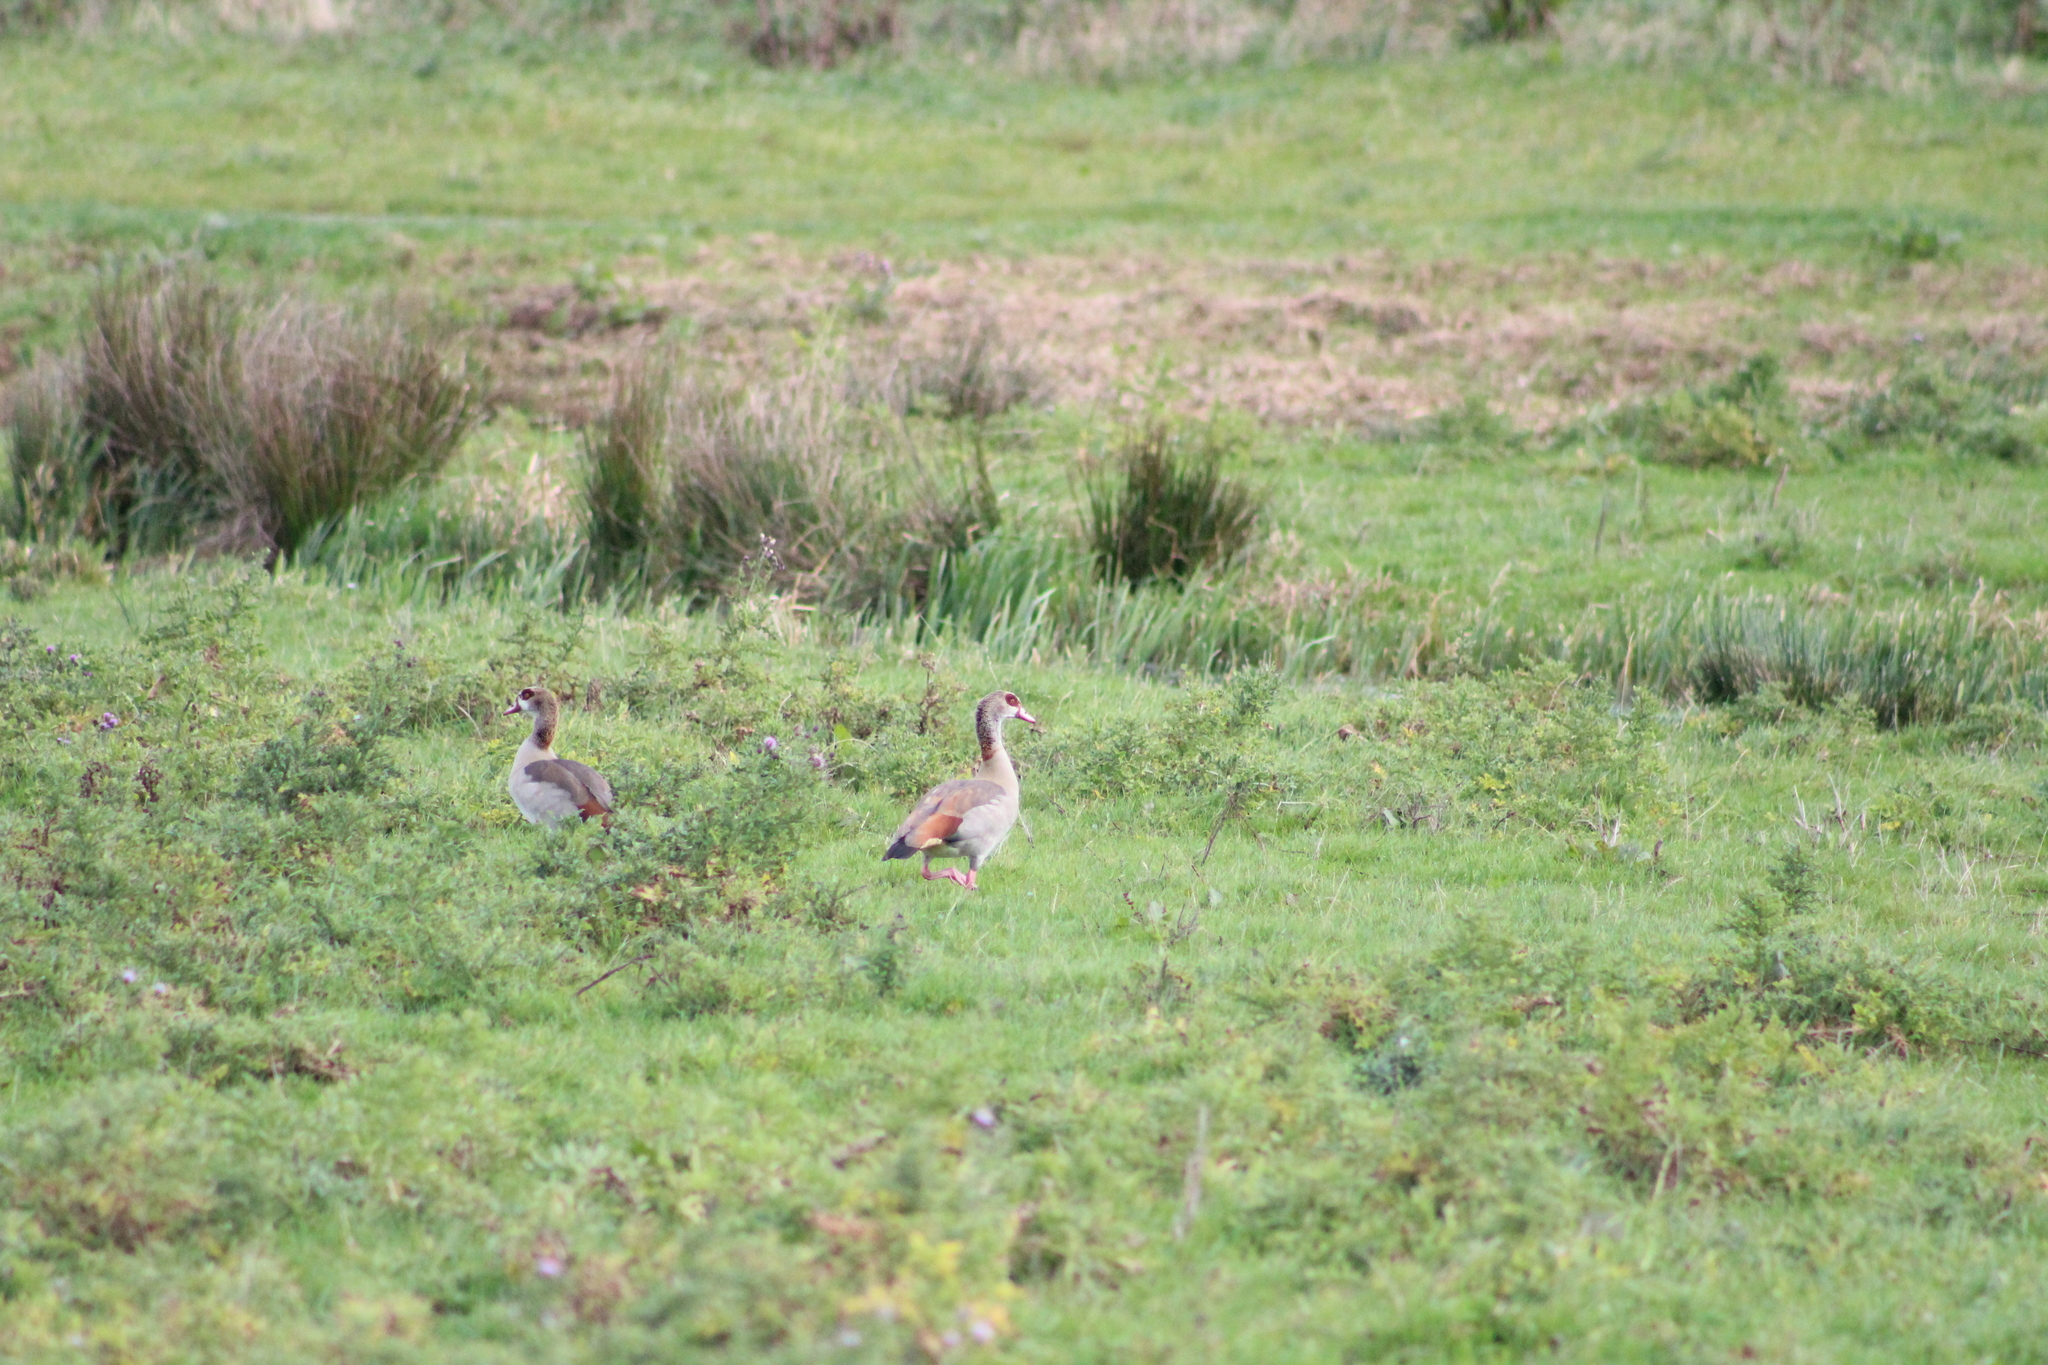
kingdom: Animalia
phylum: Chordata
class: Aves
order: Anseriformes
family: Anatidae
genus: Alopochen
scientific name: Alopochen aegyptiaca
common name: Egyptian goose
